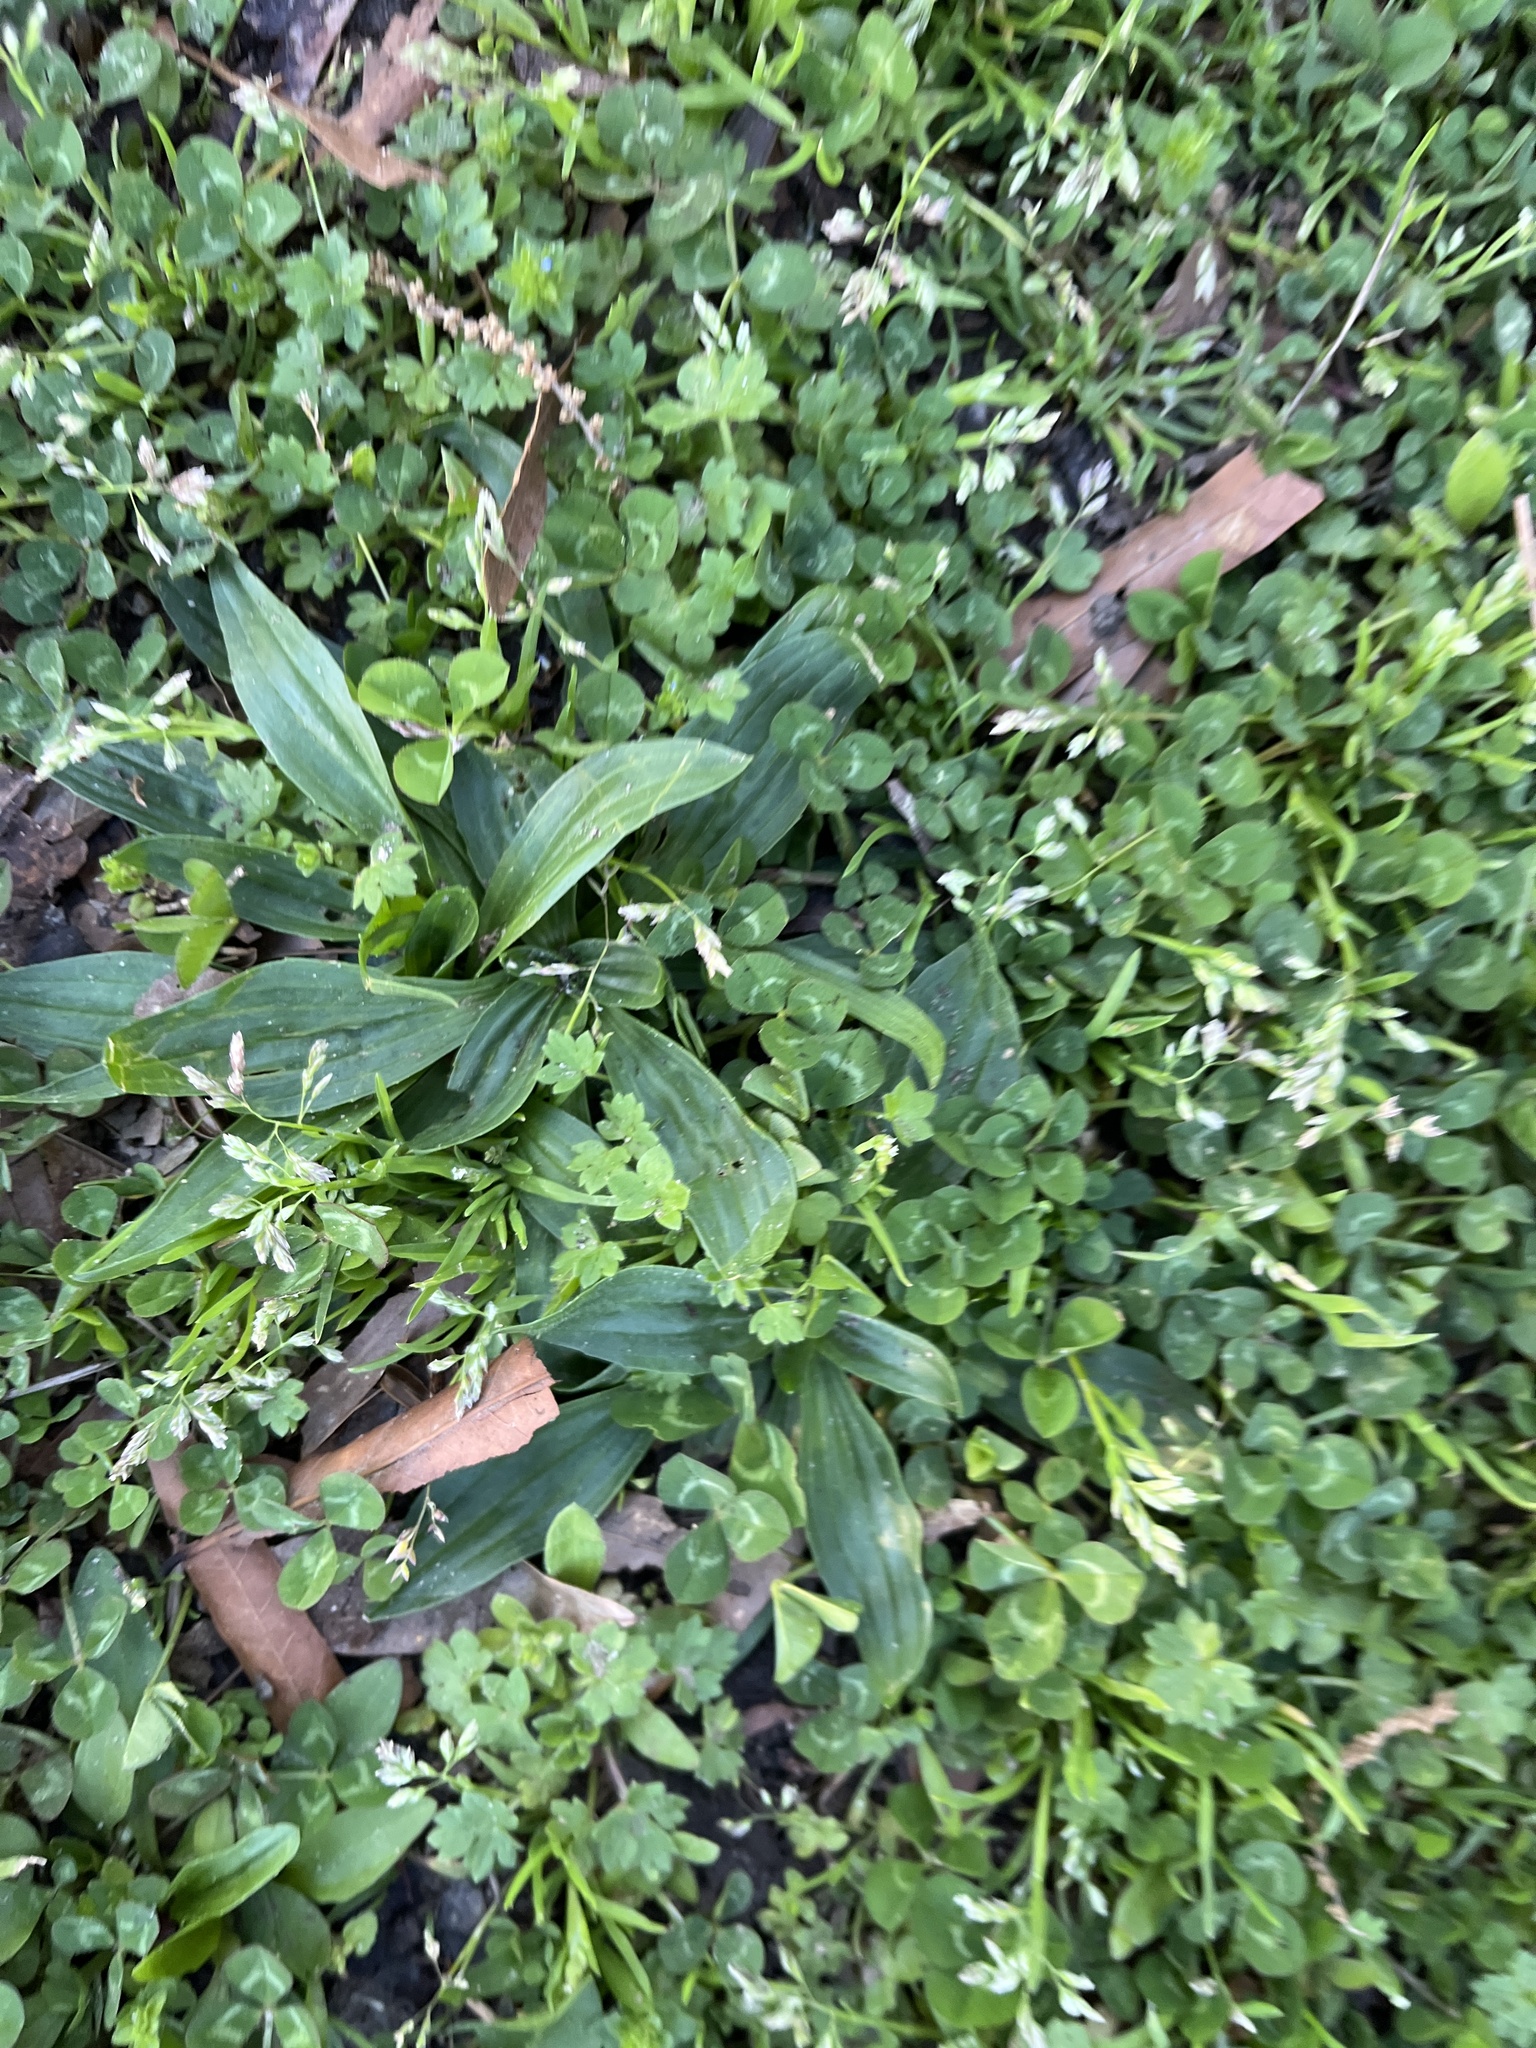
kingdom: Plantae
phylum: Tracheophyta
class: Magnoliopsida
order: Lamiales
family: Plantaginaceae
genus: Plantago
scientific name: Plantago lanceolata
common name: Ribwort plantain
